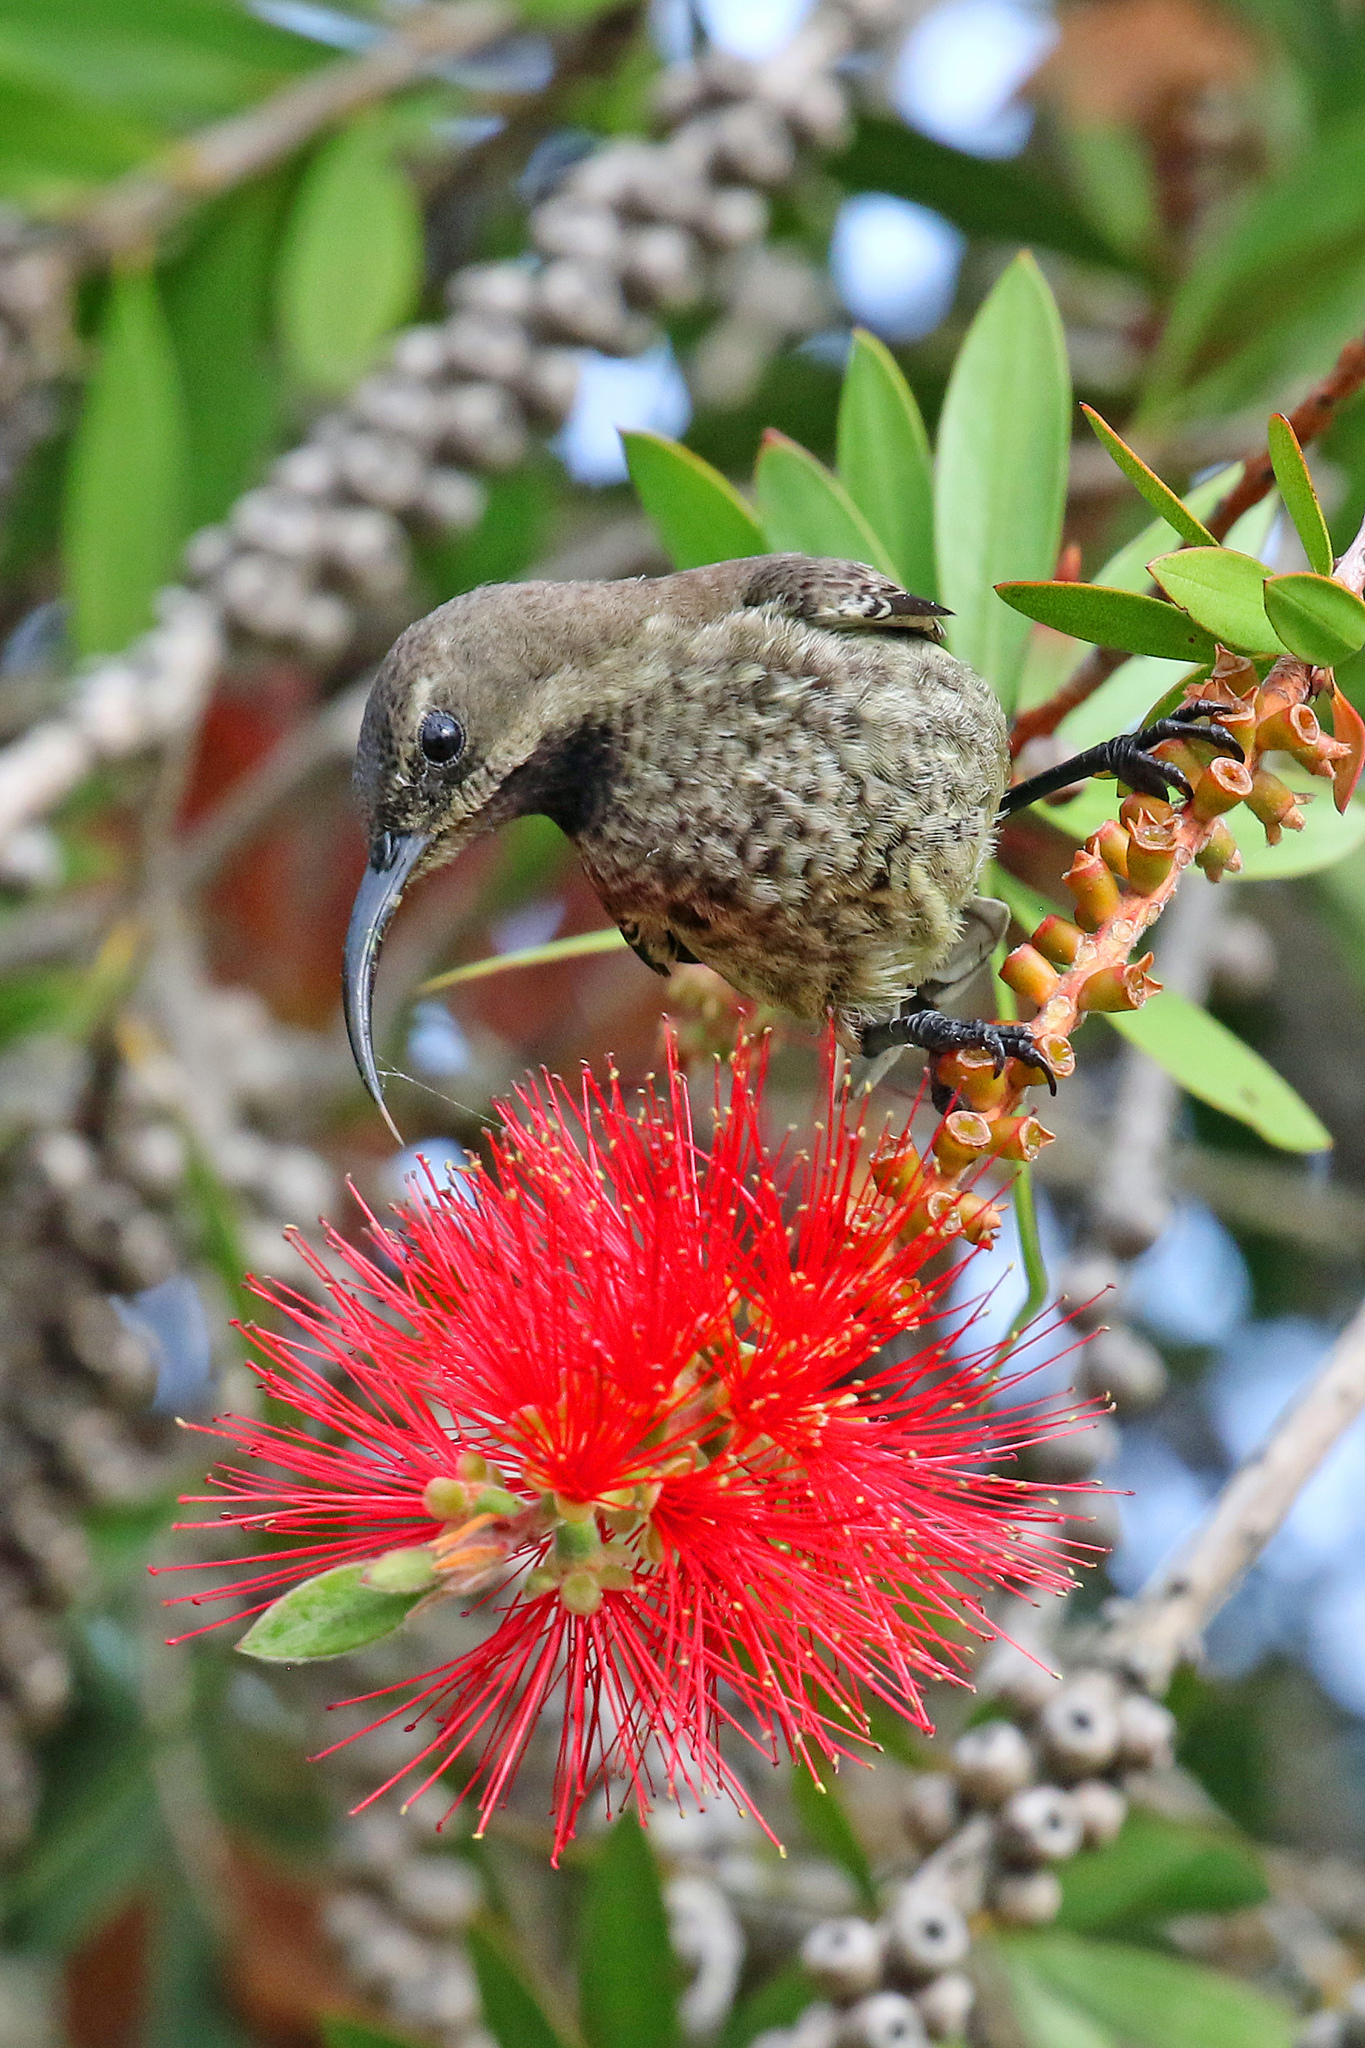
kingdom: Animalia
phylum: Chordata
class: Aves
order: Passeriformes
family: Nectariniidae
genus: Chalcomitra
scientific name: Chalcomitra amethystina
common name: Amethyst sunbird
